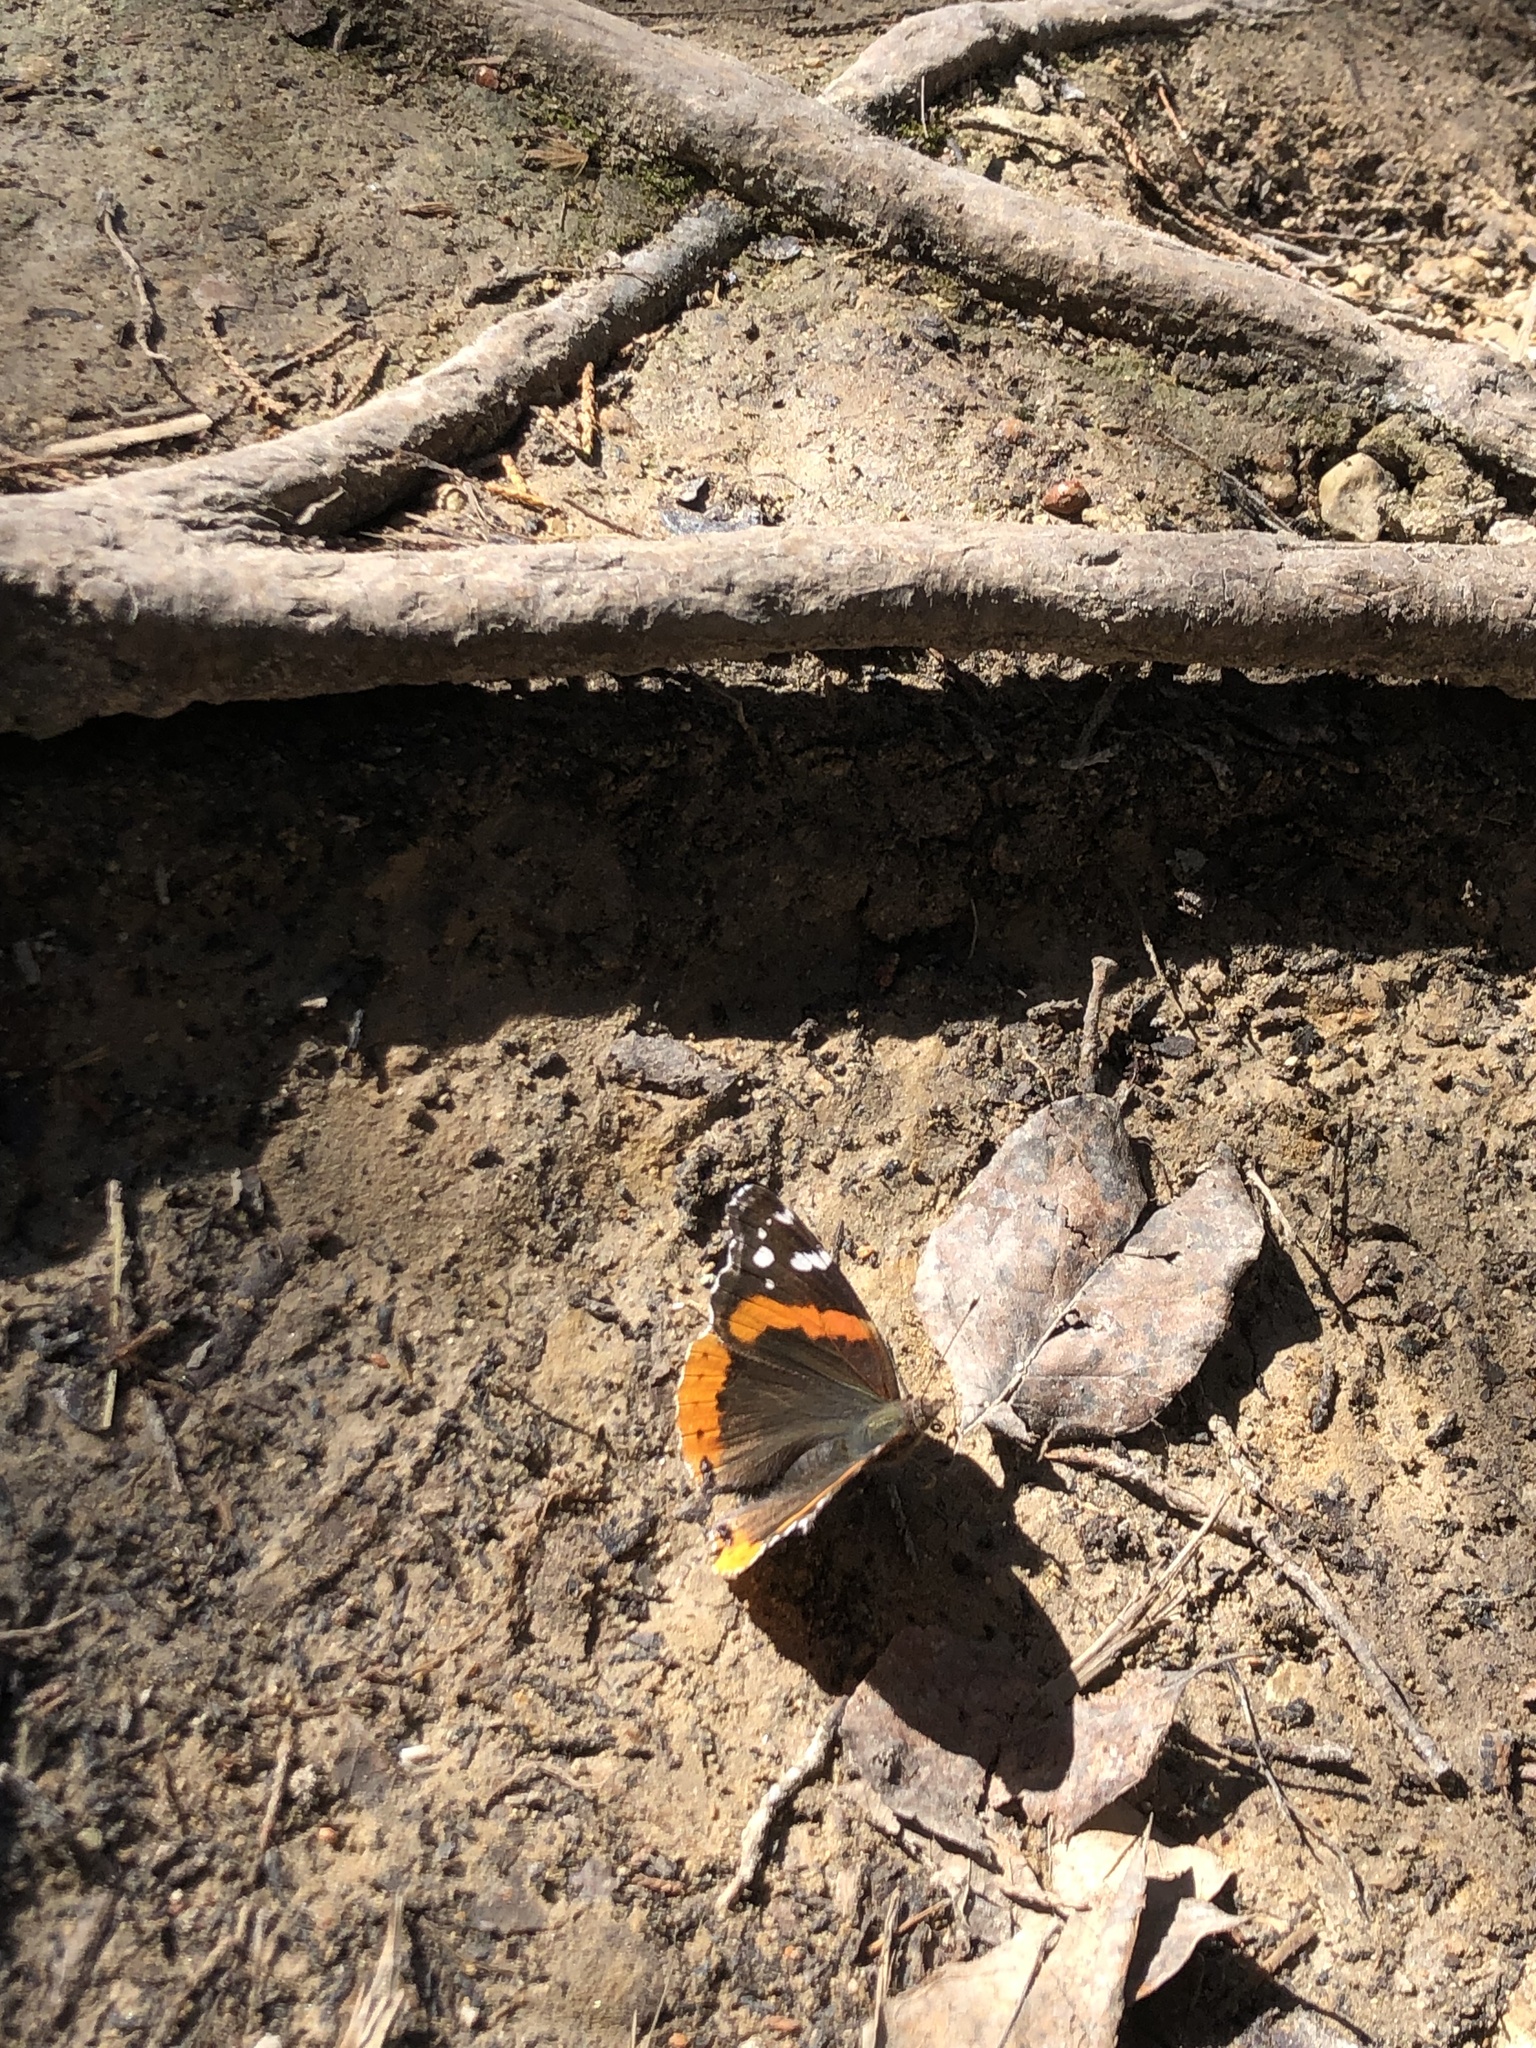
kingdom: Animalia
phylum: Arthropoda
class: Insecta
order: Lepidoptera
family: Nymphalidae
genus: Vanessa
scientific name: Vanessa atalanta
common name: Red admiral
